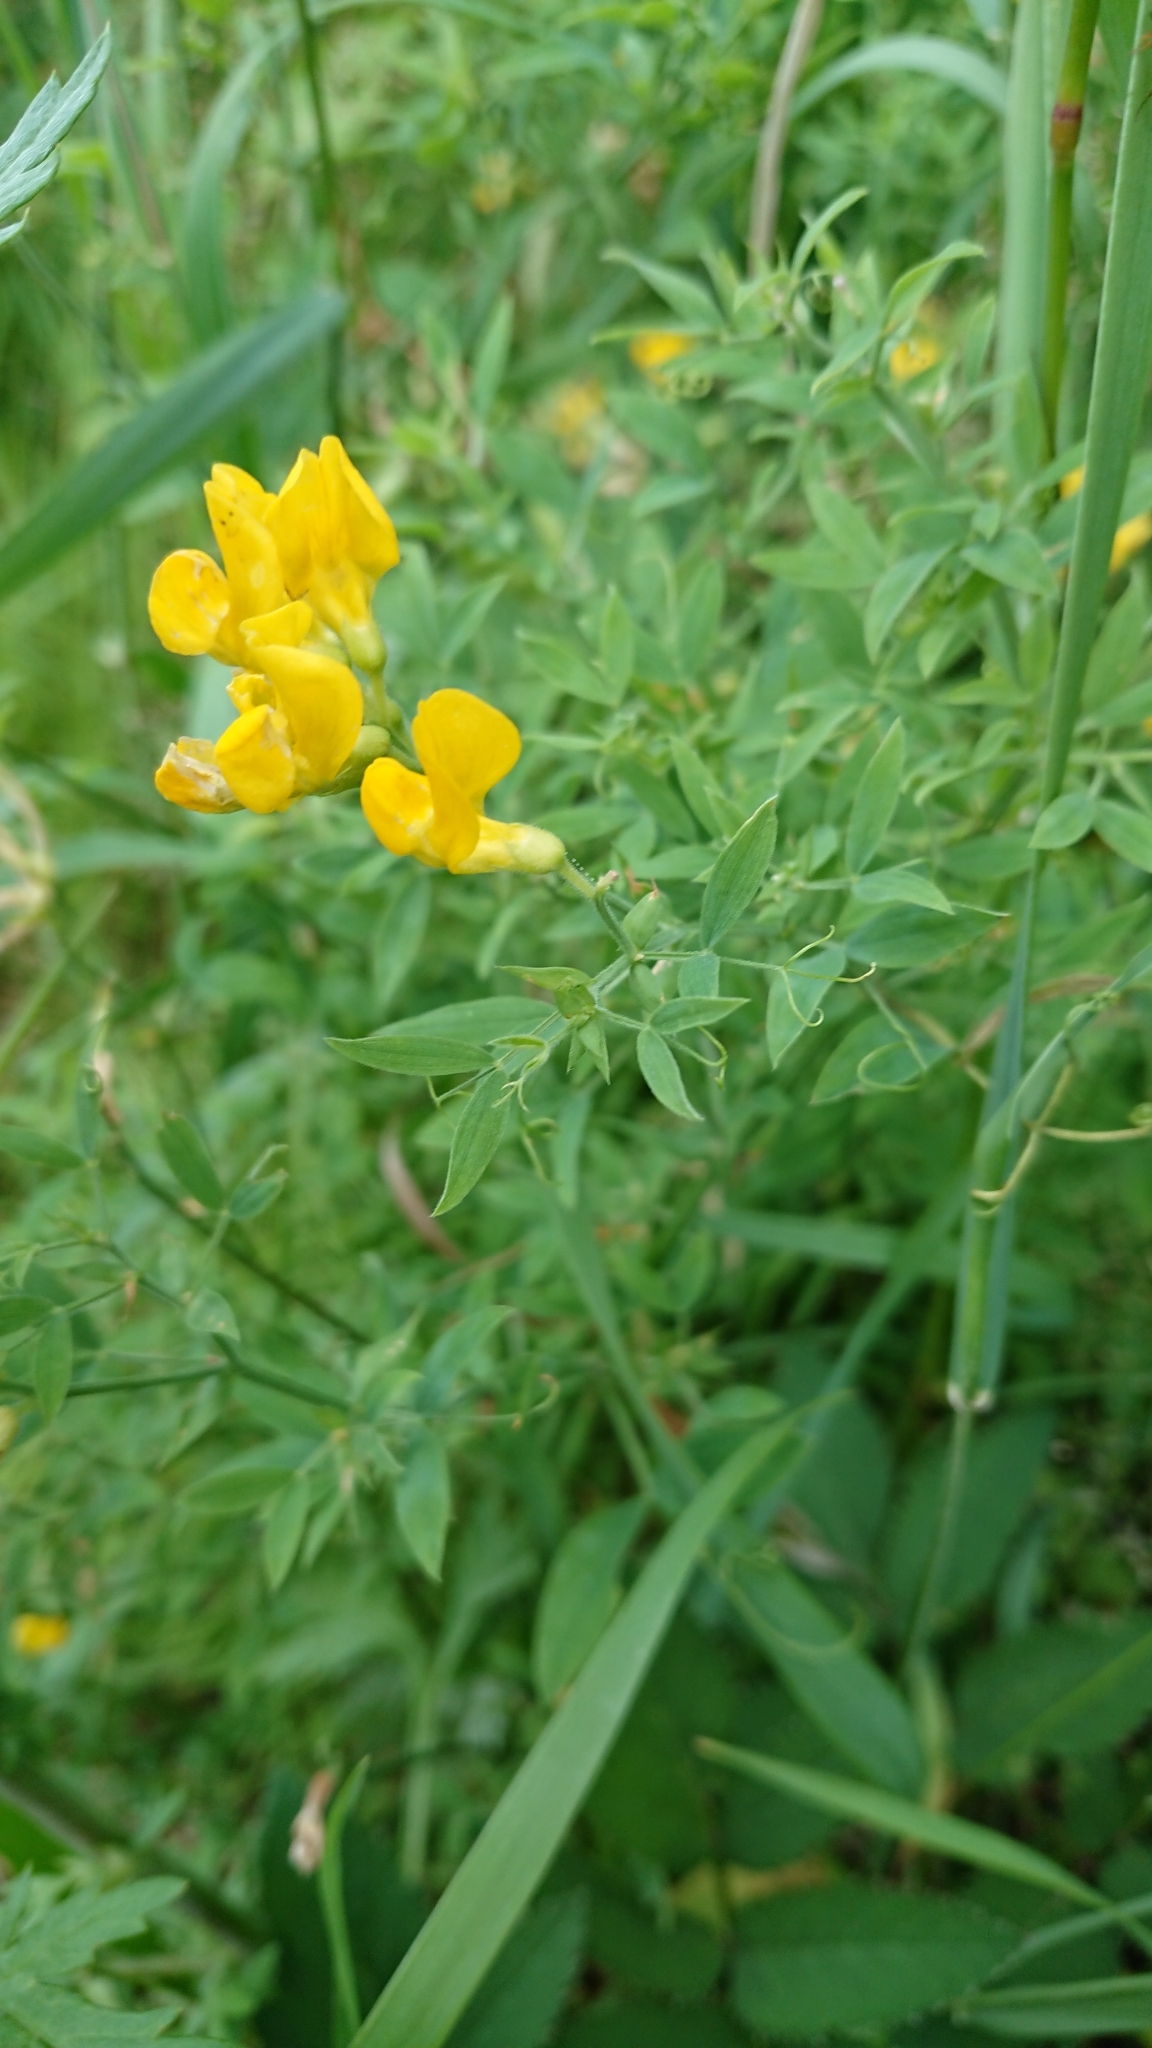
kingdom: Plantae
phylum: Tracheophyta
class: Magnoliopsida
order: Fabales
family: Fabaceae
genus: Lathyrus
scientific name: Lathyrus pratensis
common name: Meadow vetchling
